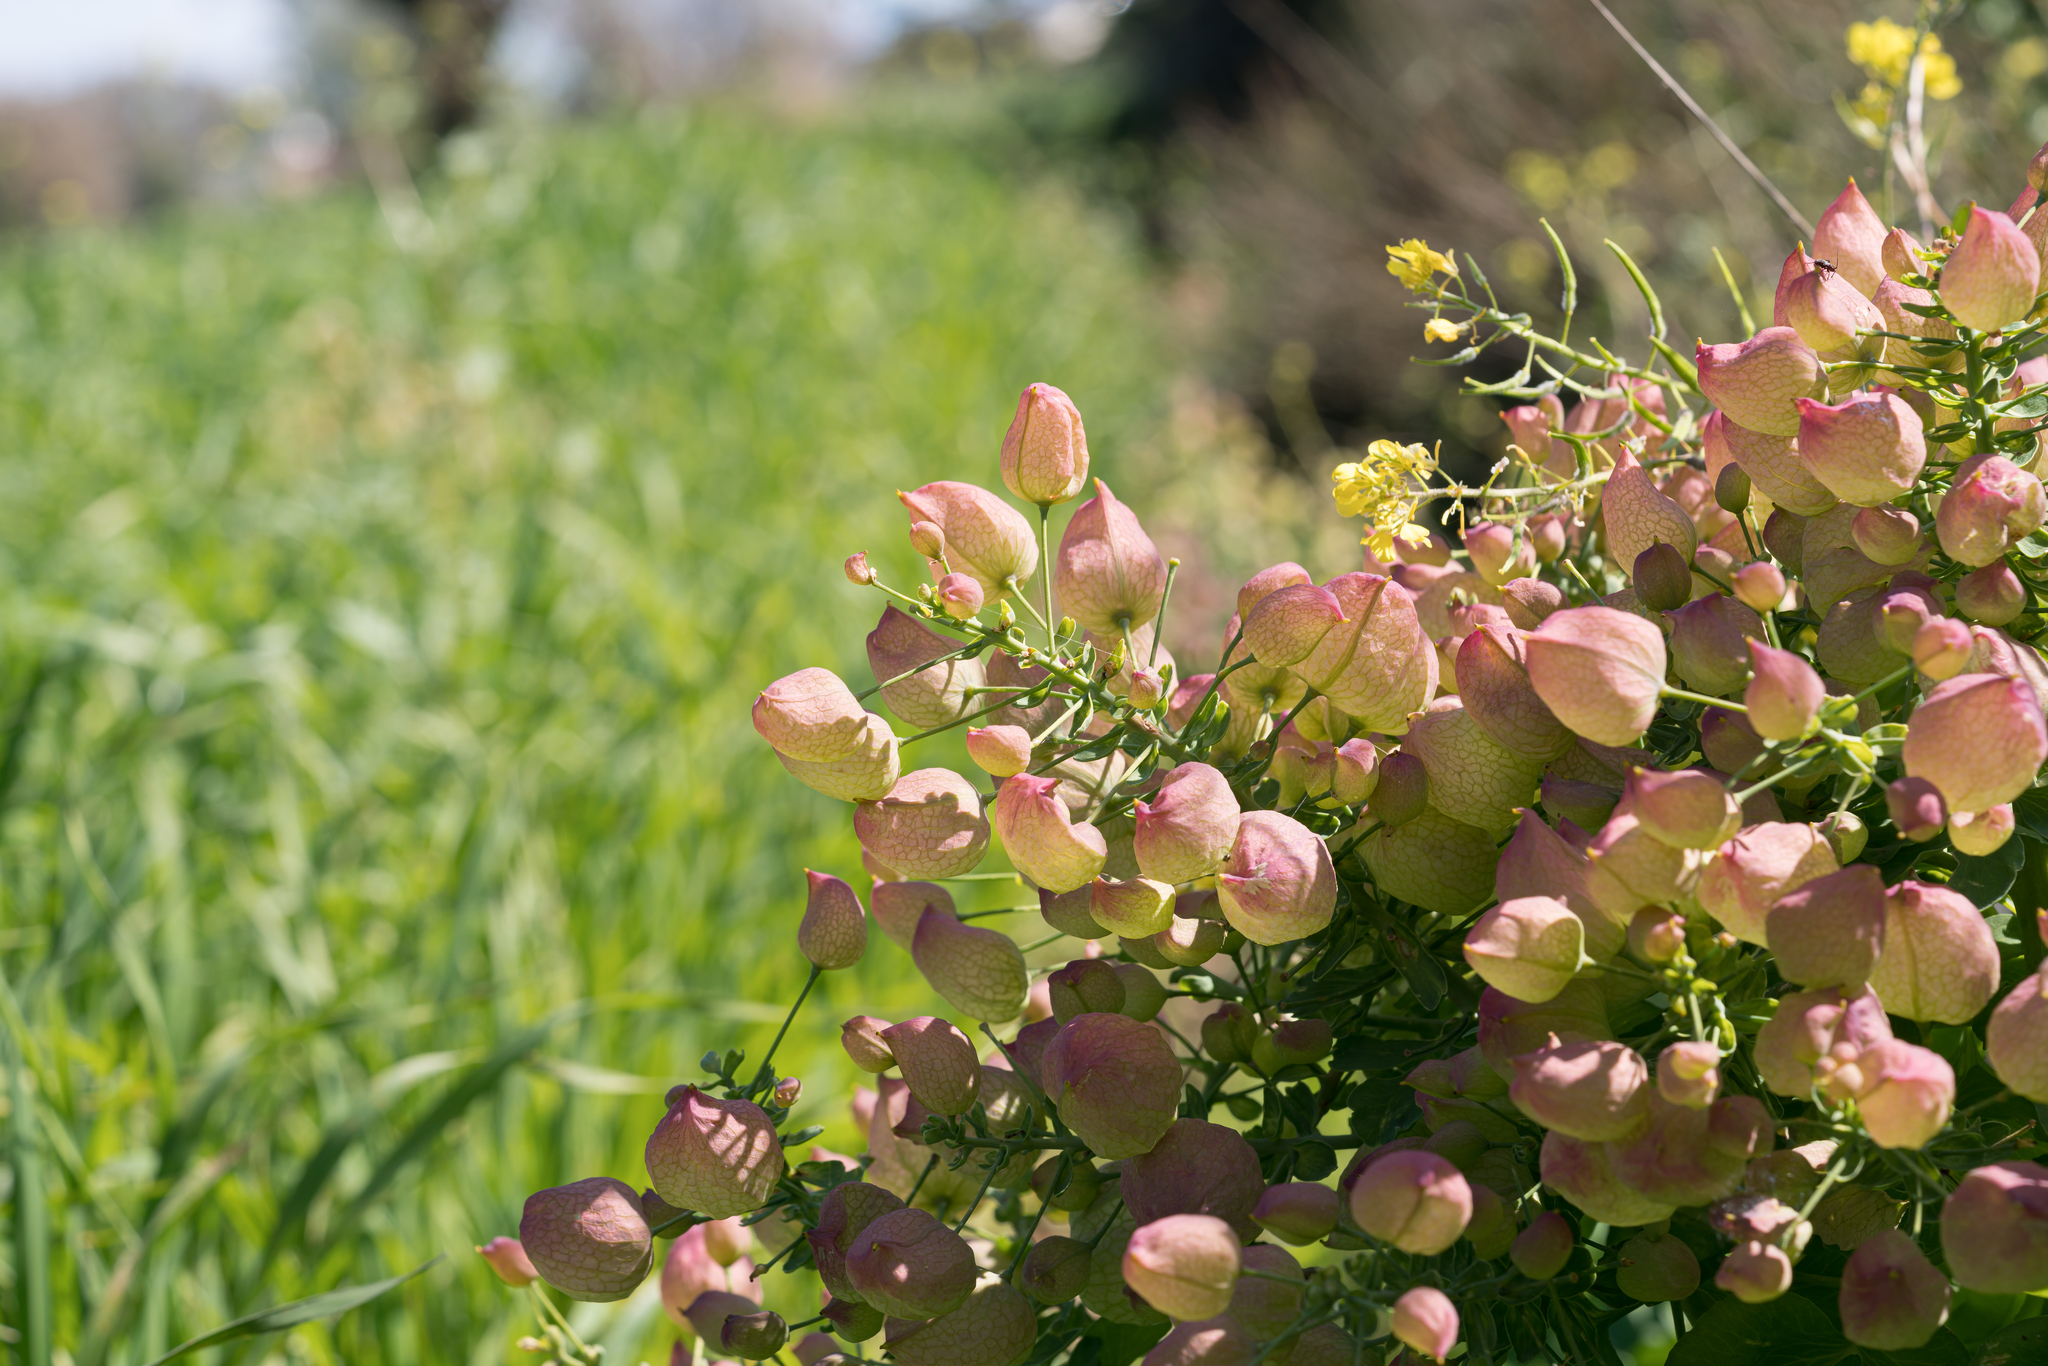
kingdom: Plantae
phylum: Tracheophyta
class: Magnoliopsida
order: Ranunculales
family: Berberidaceae
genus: Leontice
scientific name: Leontice leontopetalum
